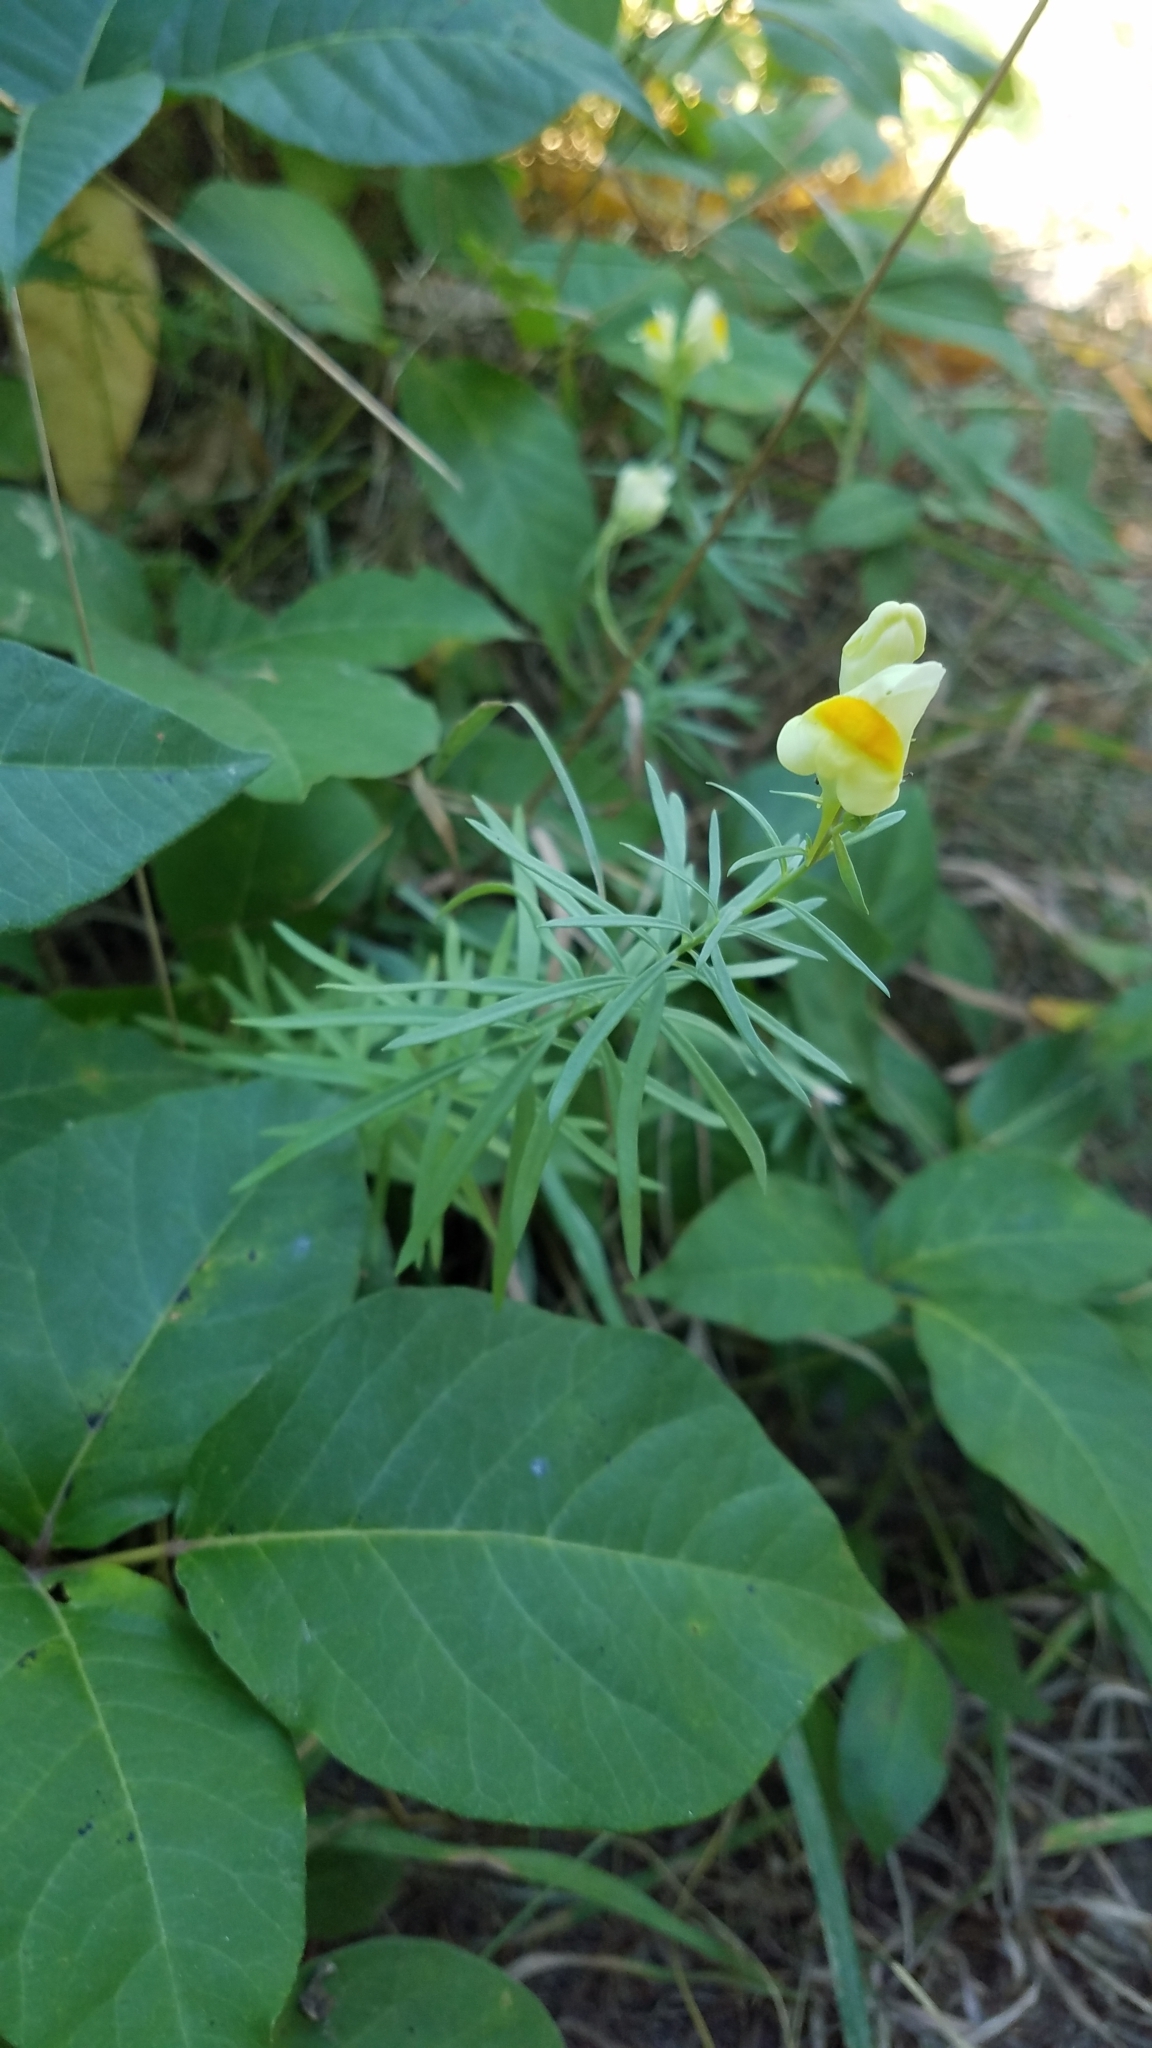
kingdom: Plantae
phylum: Tracheophyta
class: Magnoliopsida
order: Lamiales
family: Plantaginaceae
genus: Linaria
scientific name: Linaria vulgaris
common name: Butter and eggs
